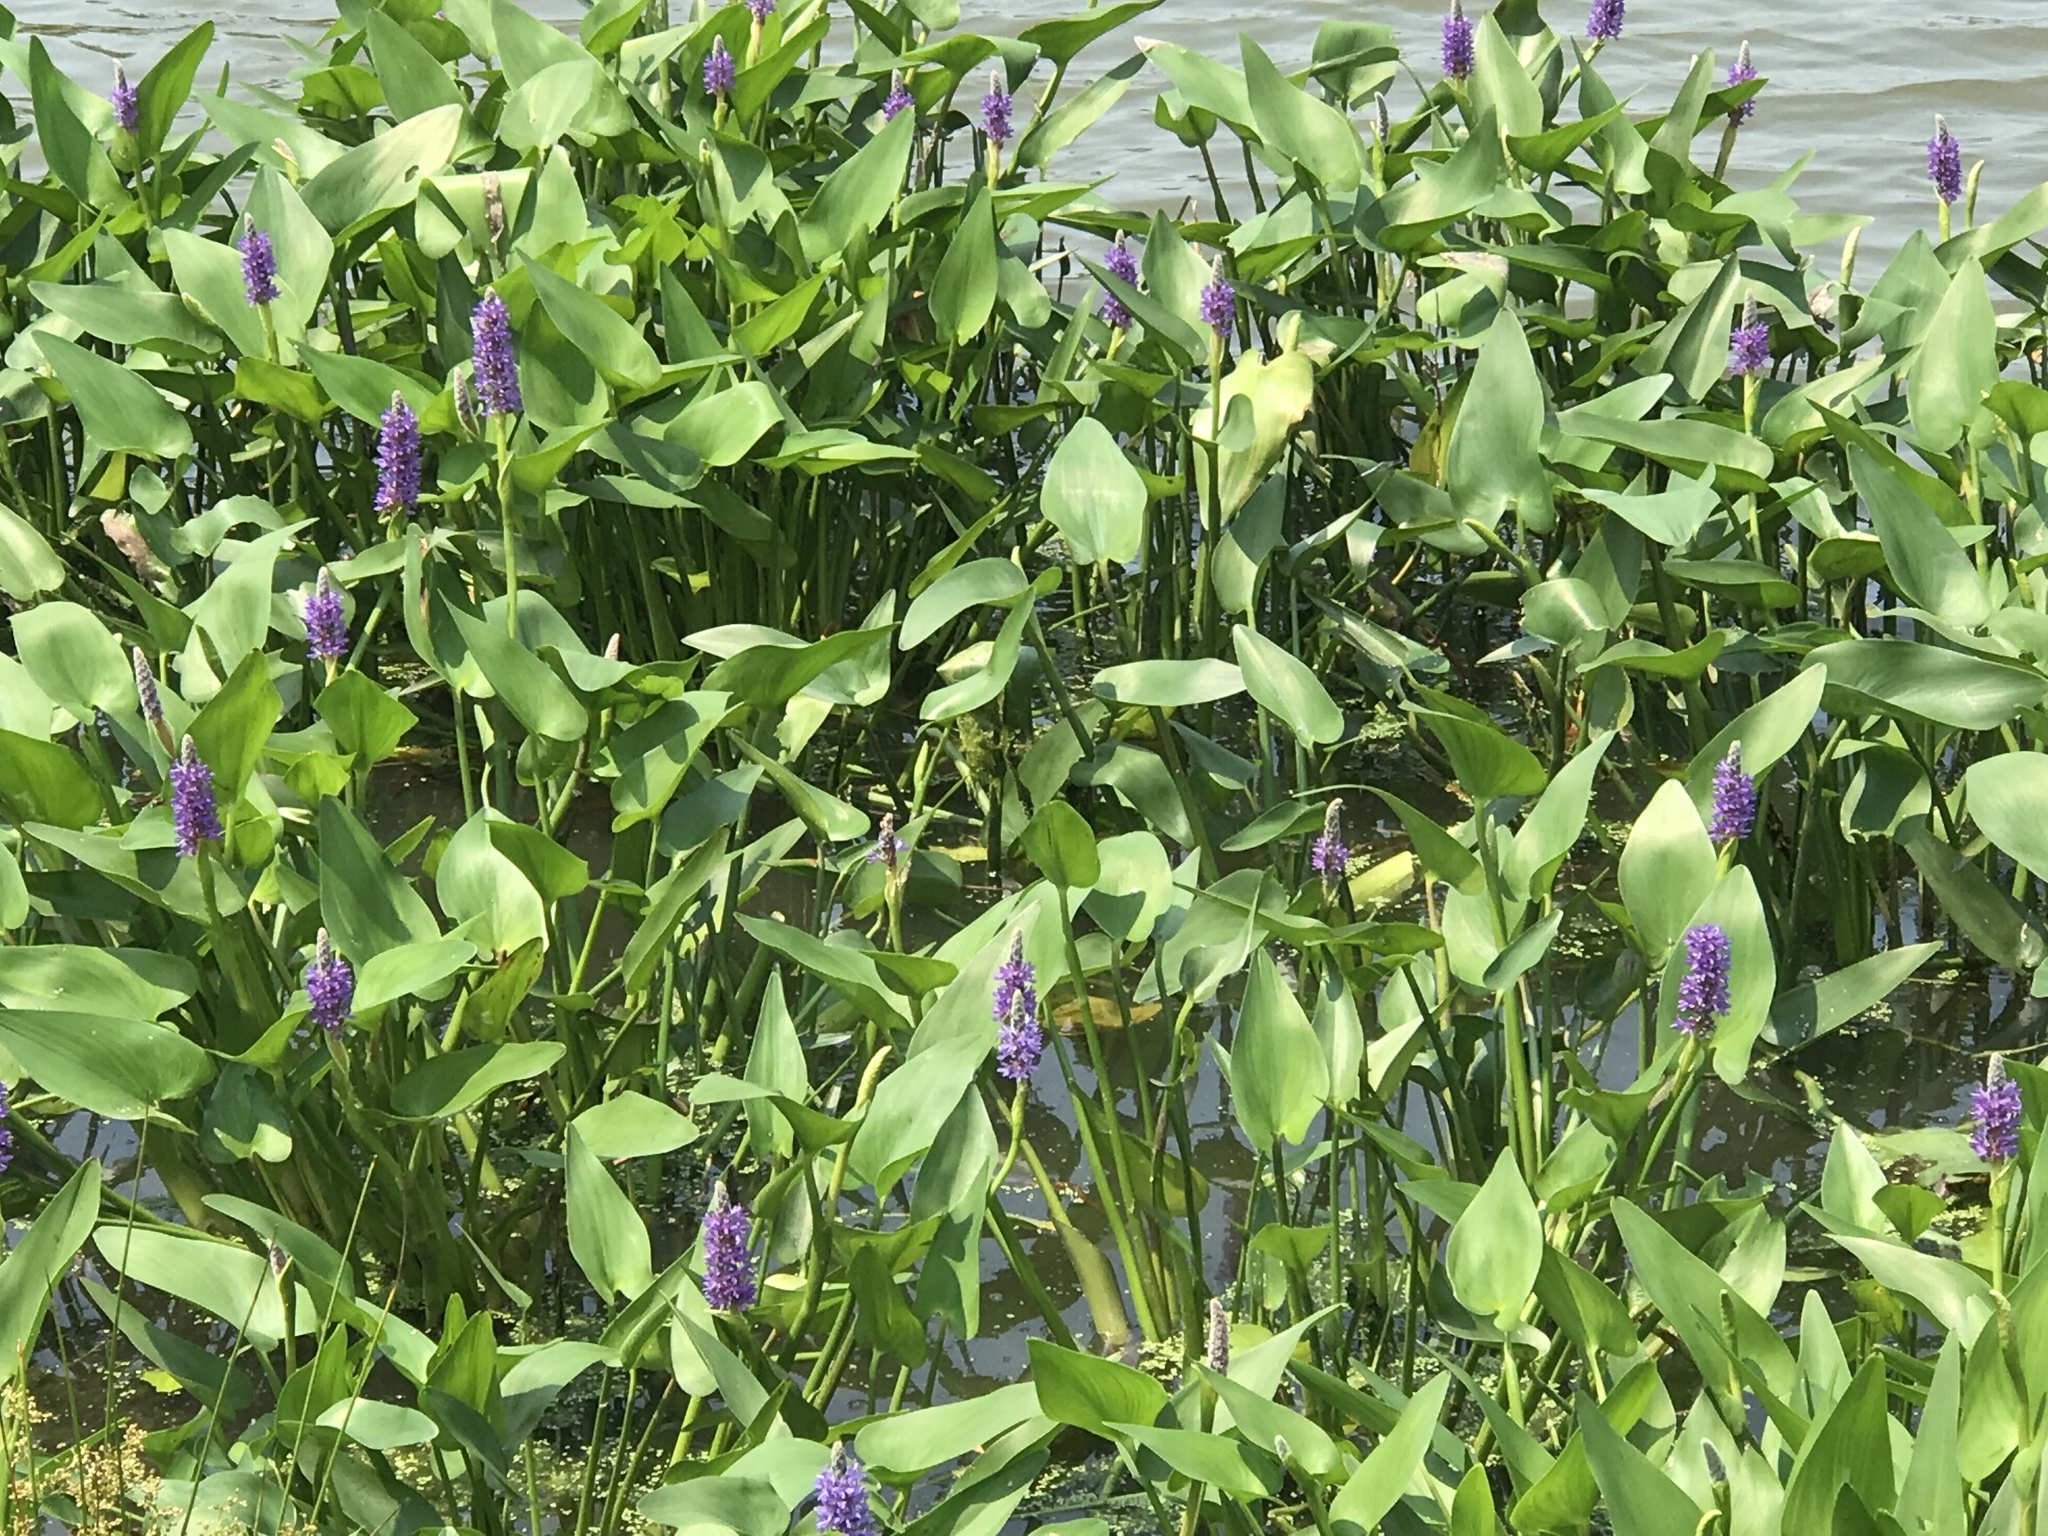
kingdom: Plantae
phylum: Tracheophyta
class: Liliopsida
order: Commelinales
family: Pontederiaceae
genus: Pontederia
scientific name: Pontederia cordata
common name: Pickerelweed
